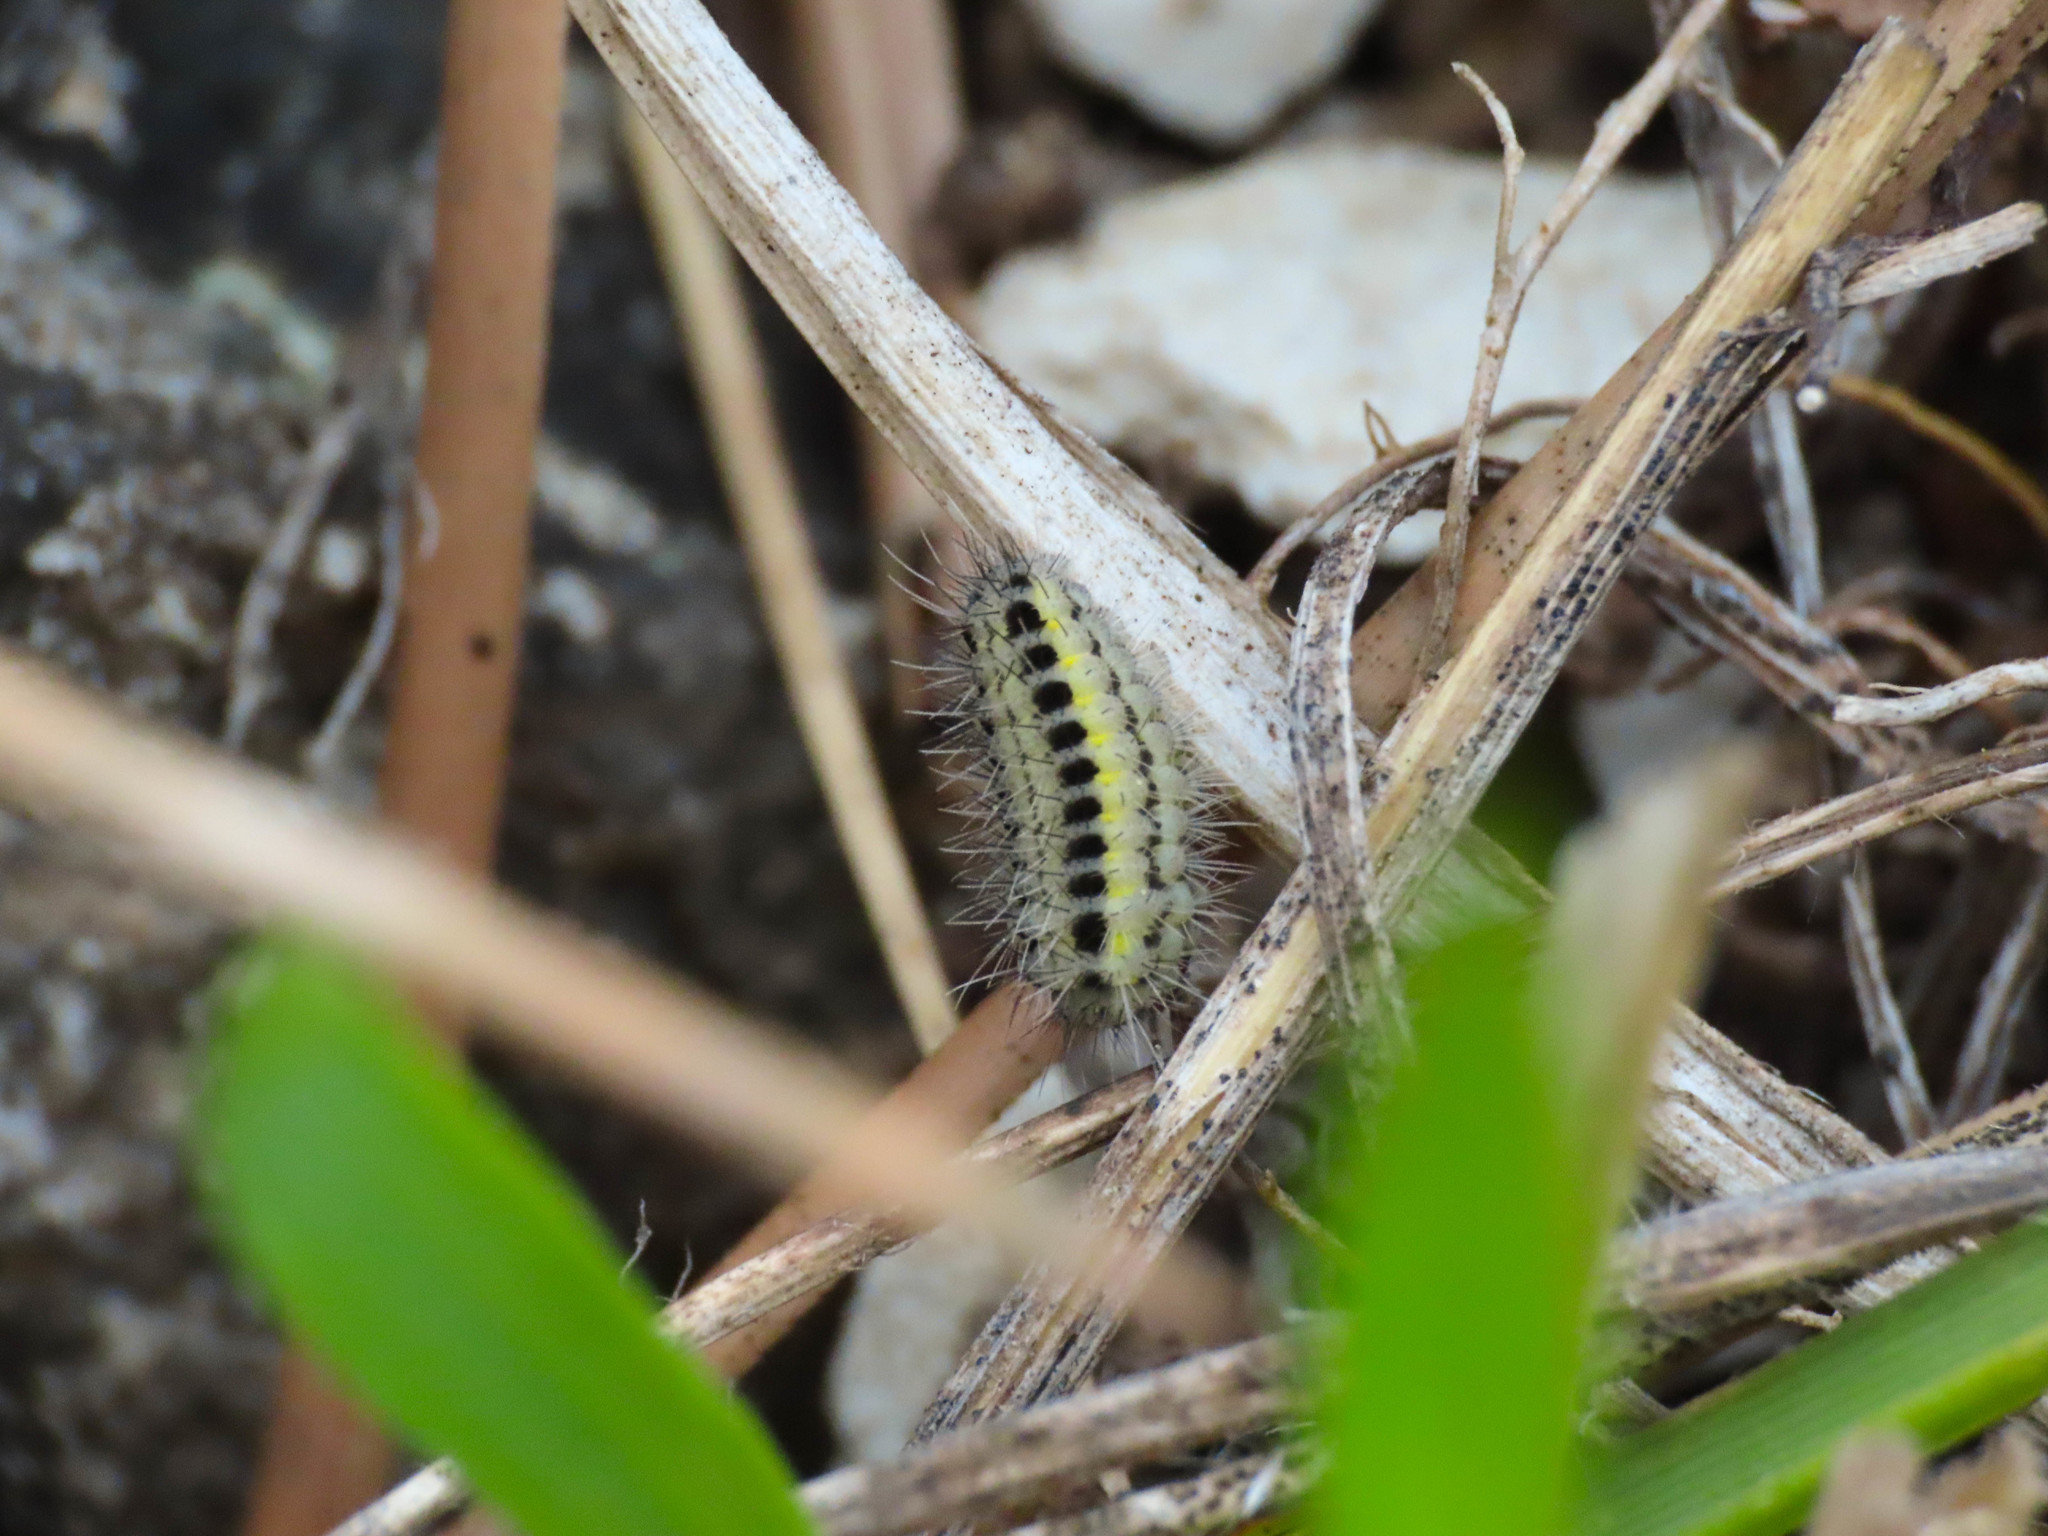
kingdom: Animalia
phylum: Arthropoda
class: Insecta
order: Lepidoptera
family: Zygaenidae
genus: Zygaena
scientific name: Zygaena transalpina
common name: Southern six spot burnet
